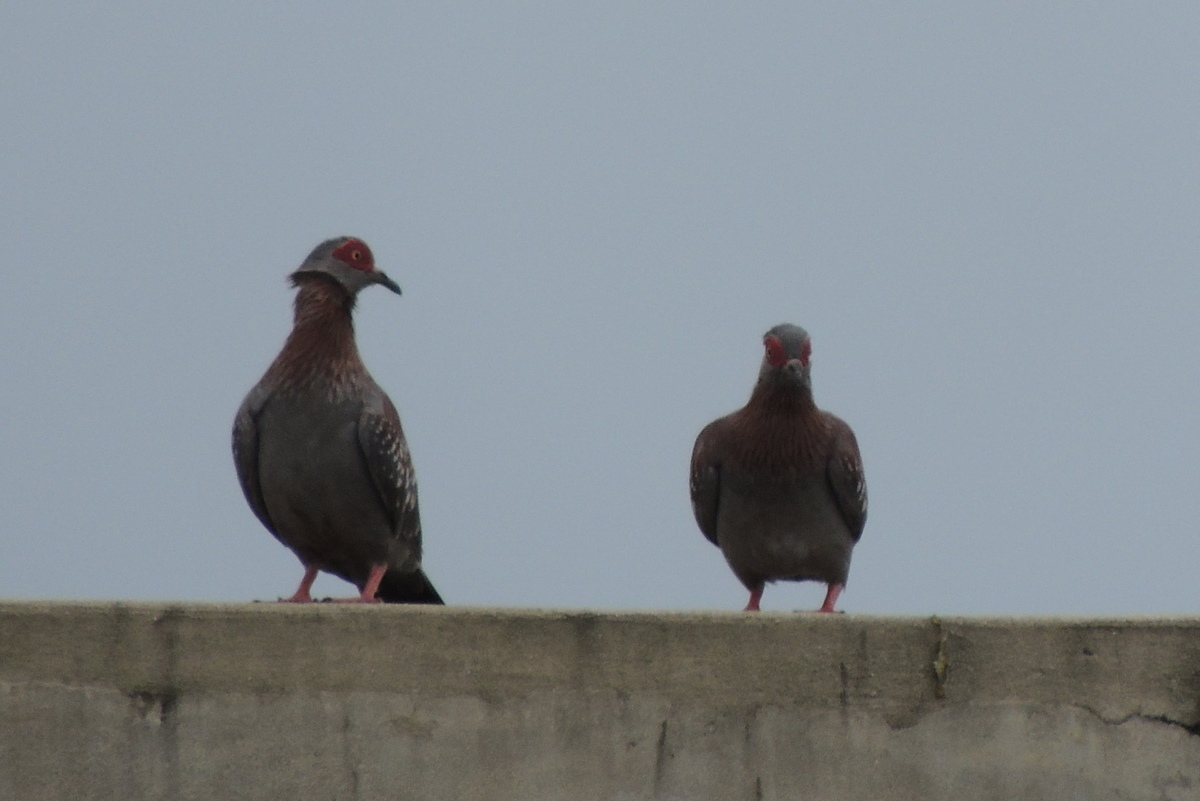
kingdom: Animalia
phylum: Chordata
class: Aves
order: Columbiformes
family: Columbidae
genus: Columba
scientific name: Columba guinea
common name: Speckled pigeon
